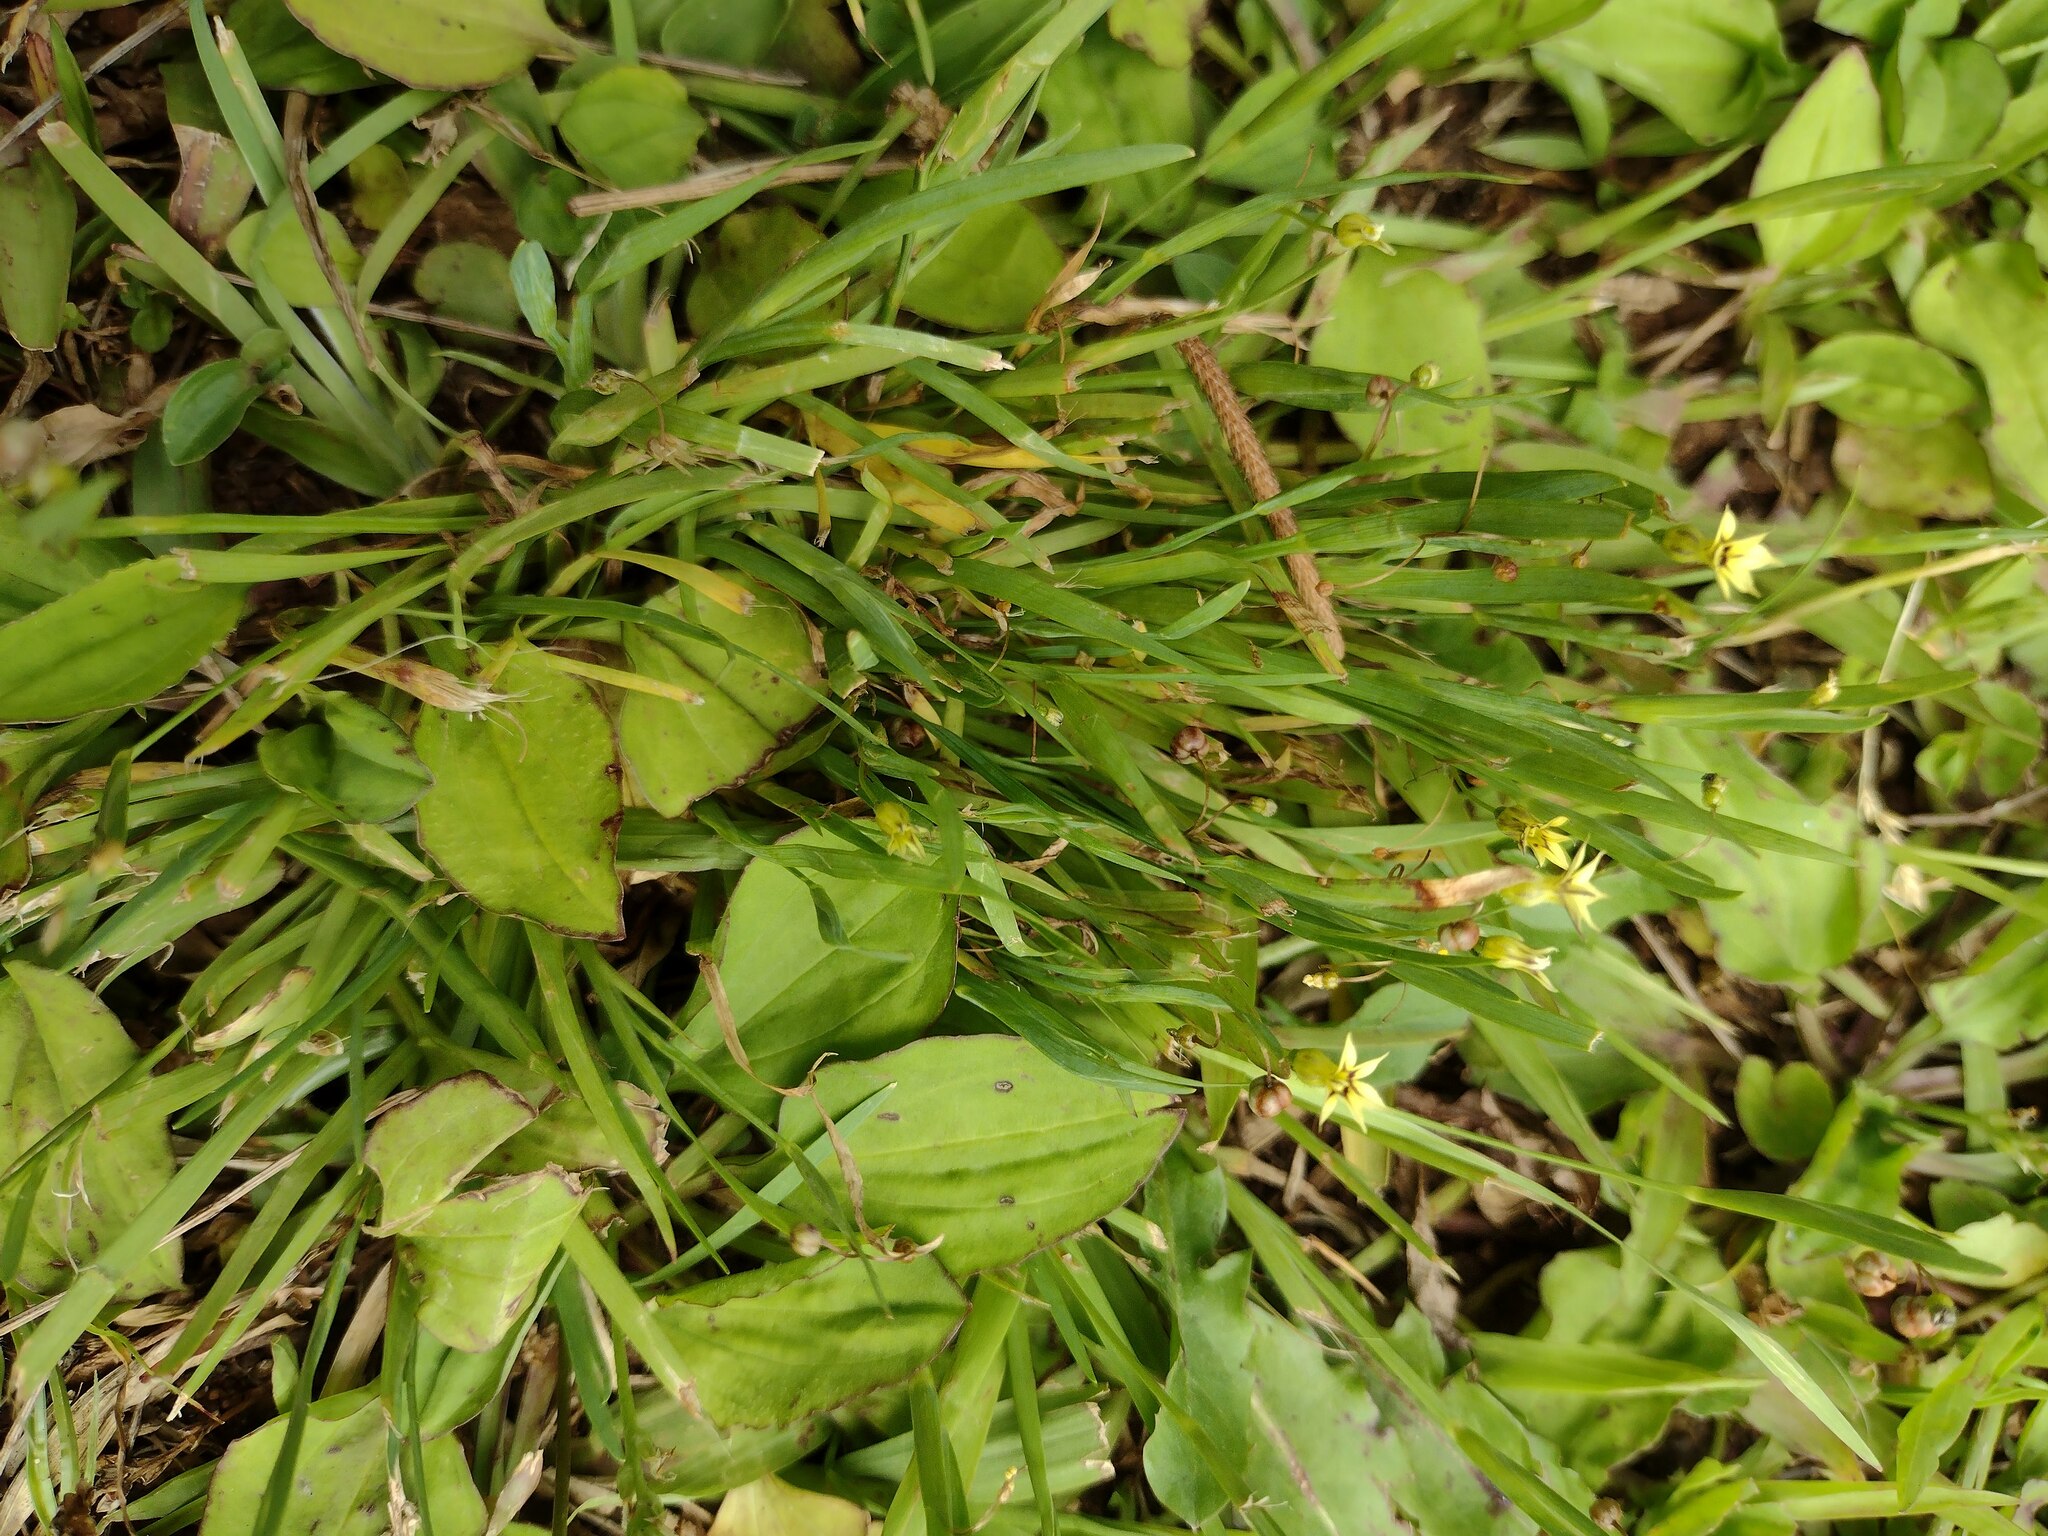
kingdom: Plantae
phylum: Tracheophyta
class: Liliopsida
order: Asparagales
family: Iridaceae
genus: Sisyrinchium
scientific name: Sisyrinchium micranthum
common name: Bermuda pigroot
